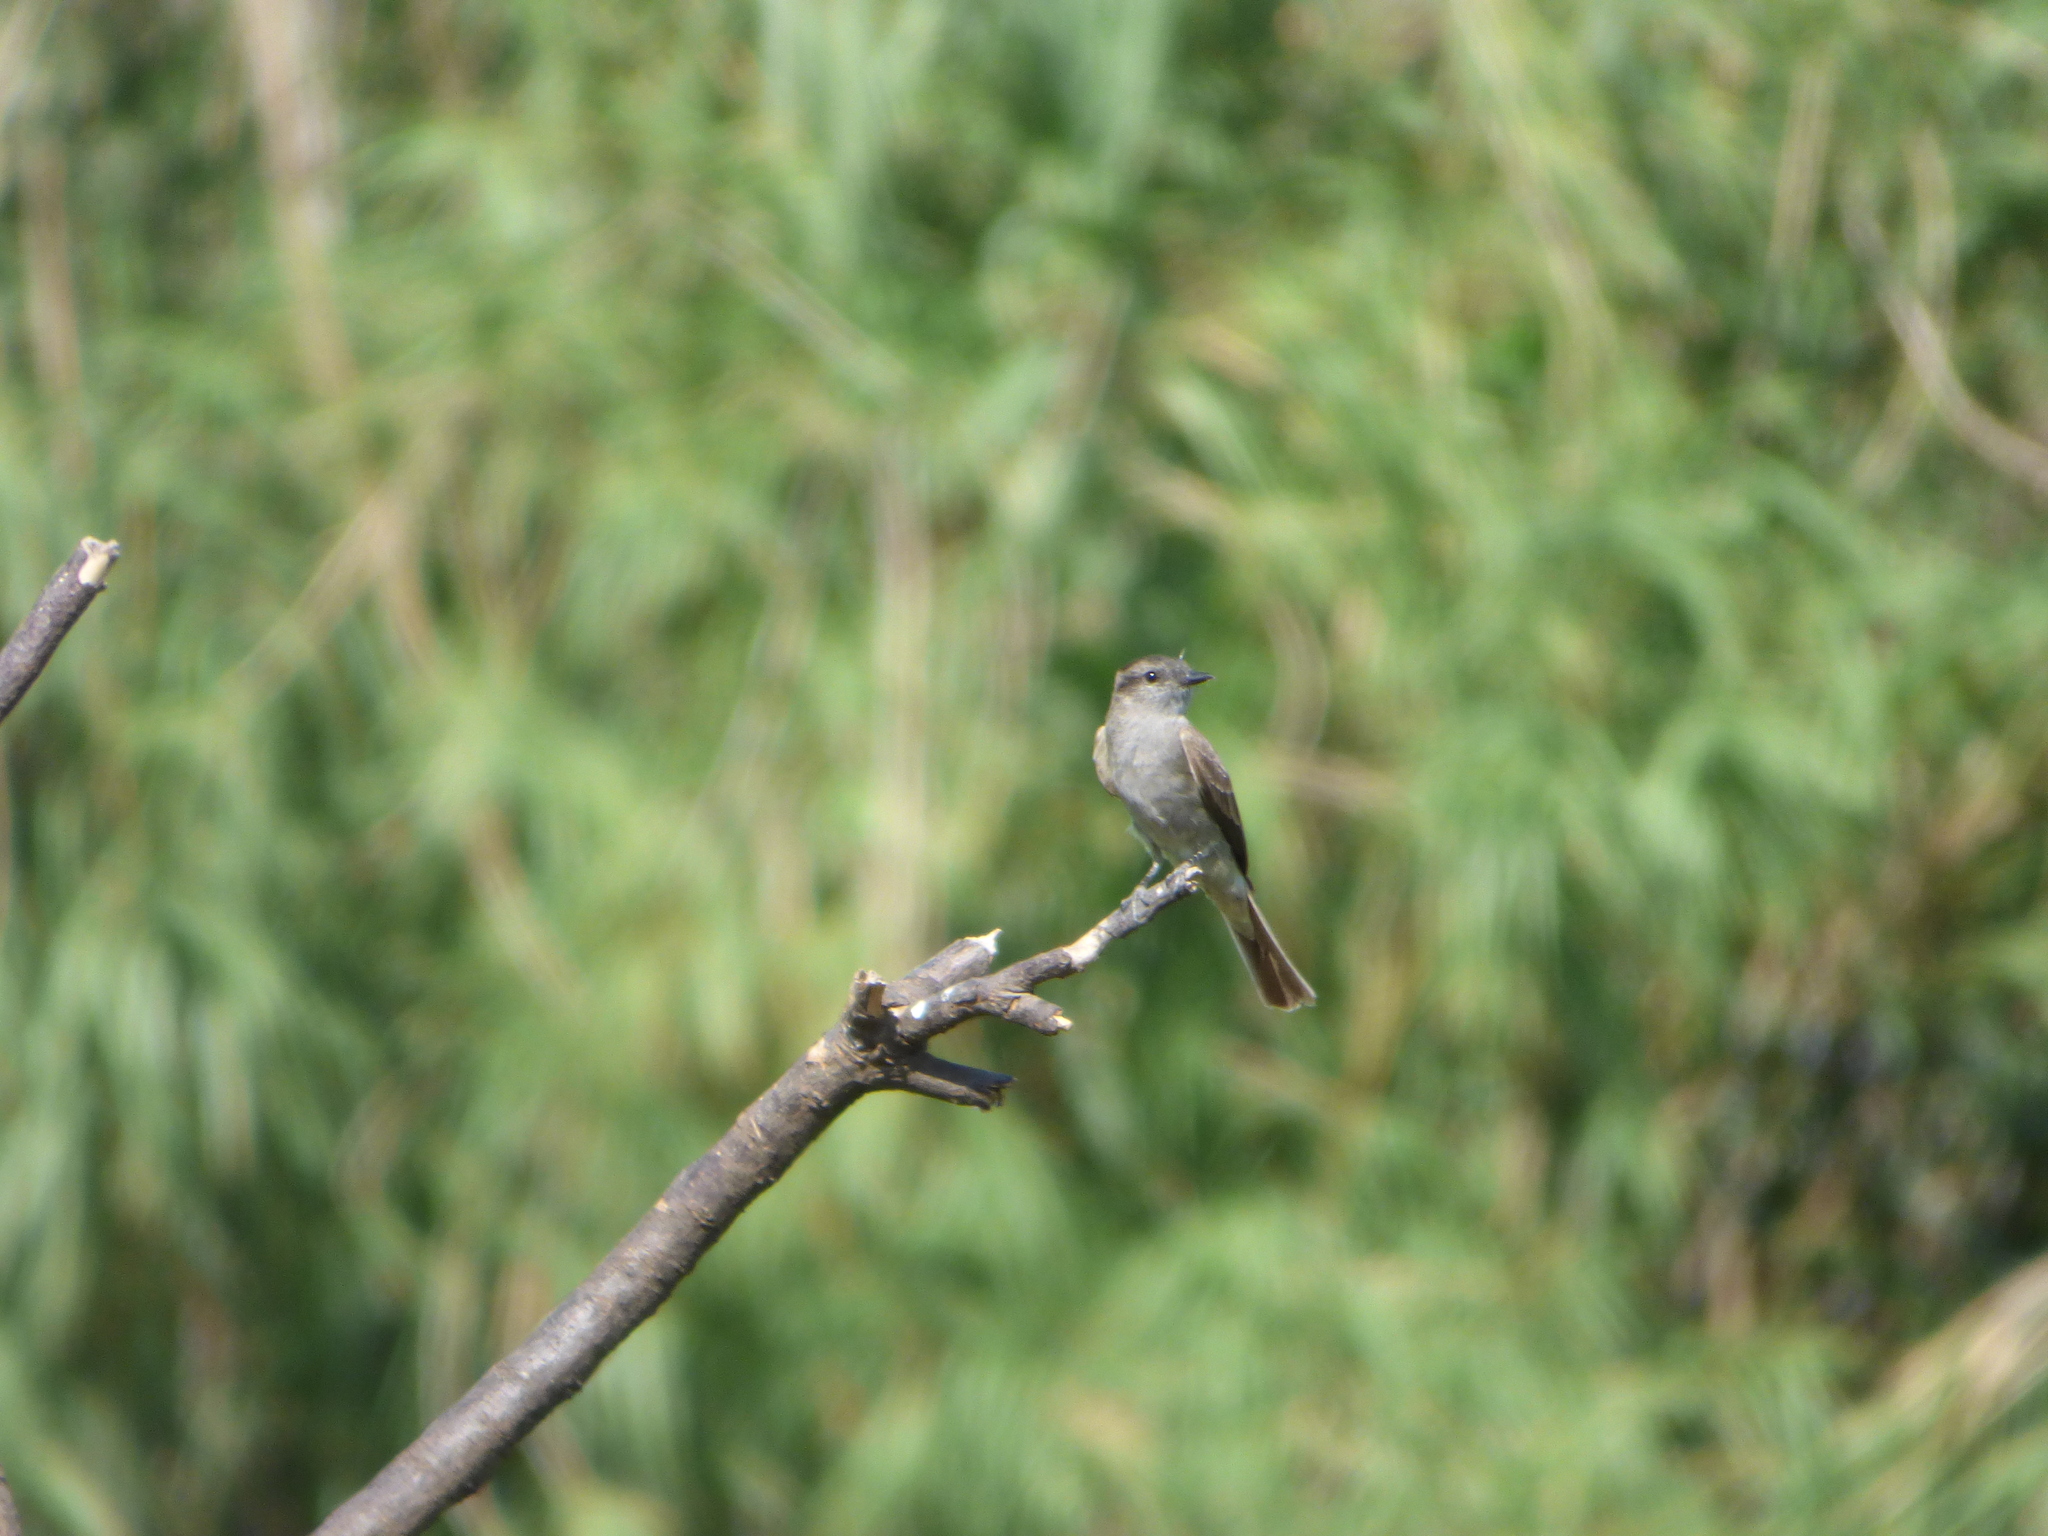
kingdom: Animalia
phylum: Chordata
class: Aves
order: Passeriformes
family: Tyrannidae
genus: Empidonomus
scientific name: Empidonomus aurantioatrocristatus
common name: Crowned slaty flycatcher
